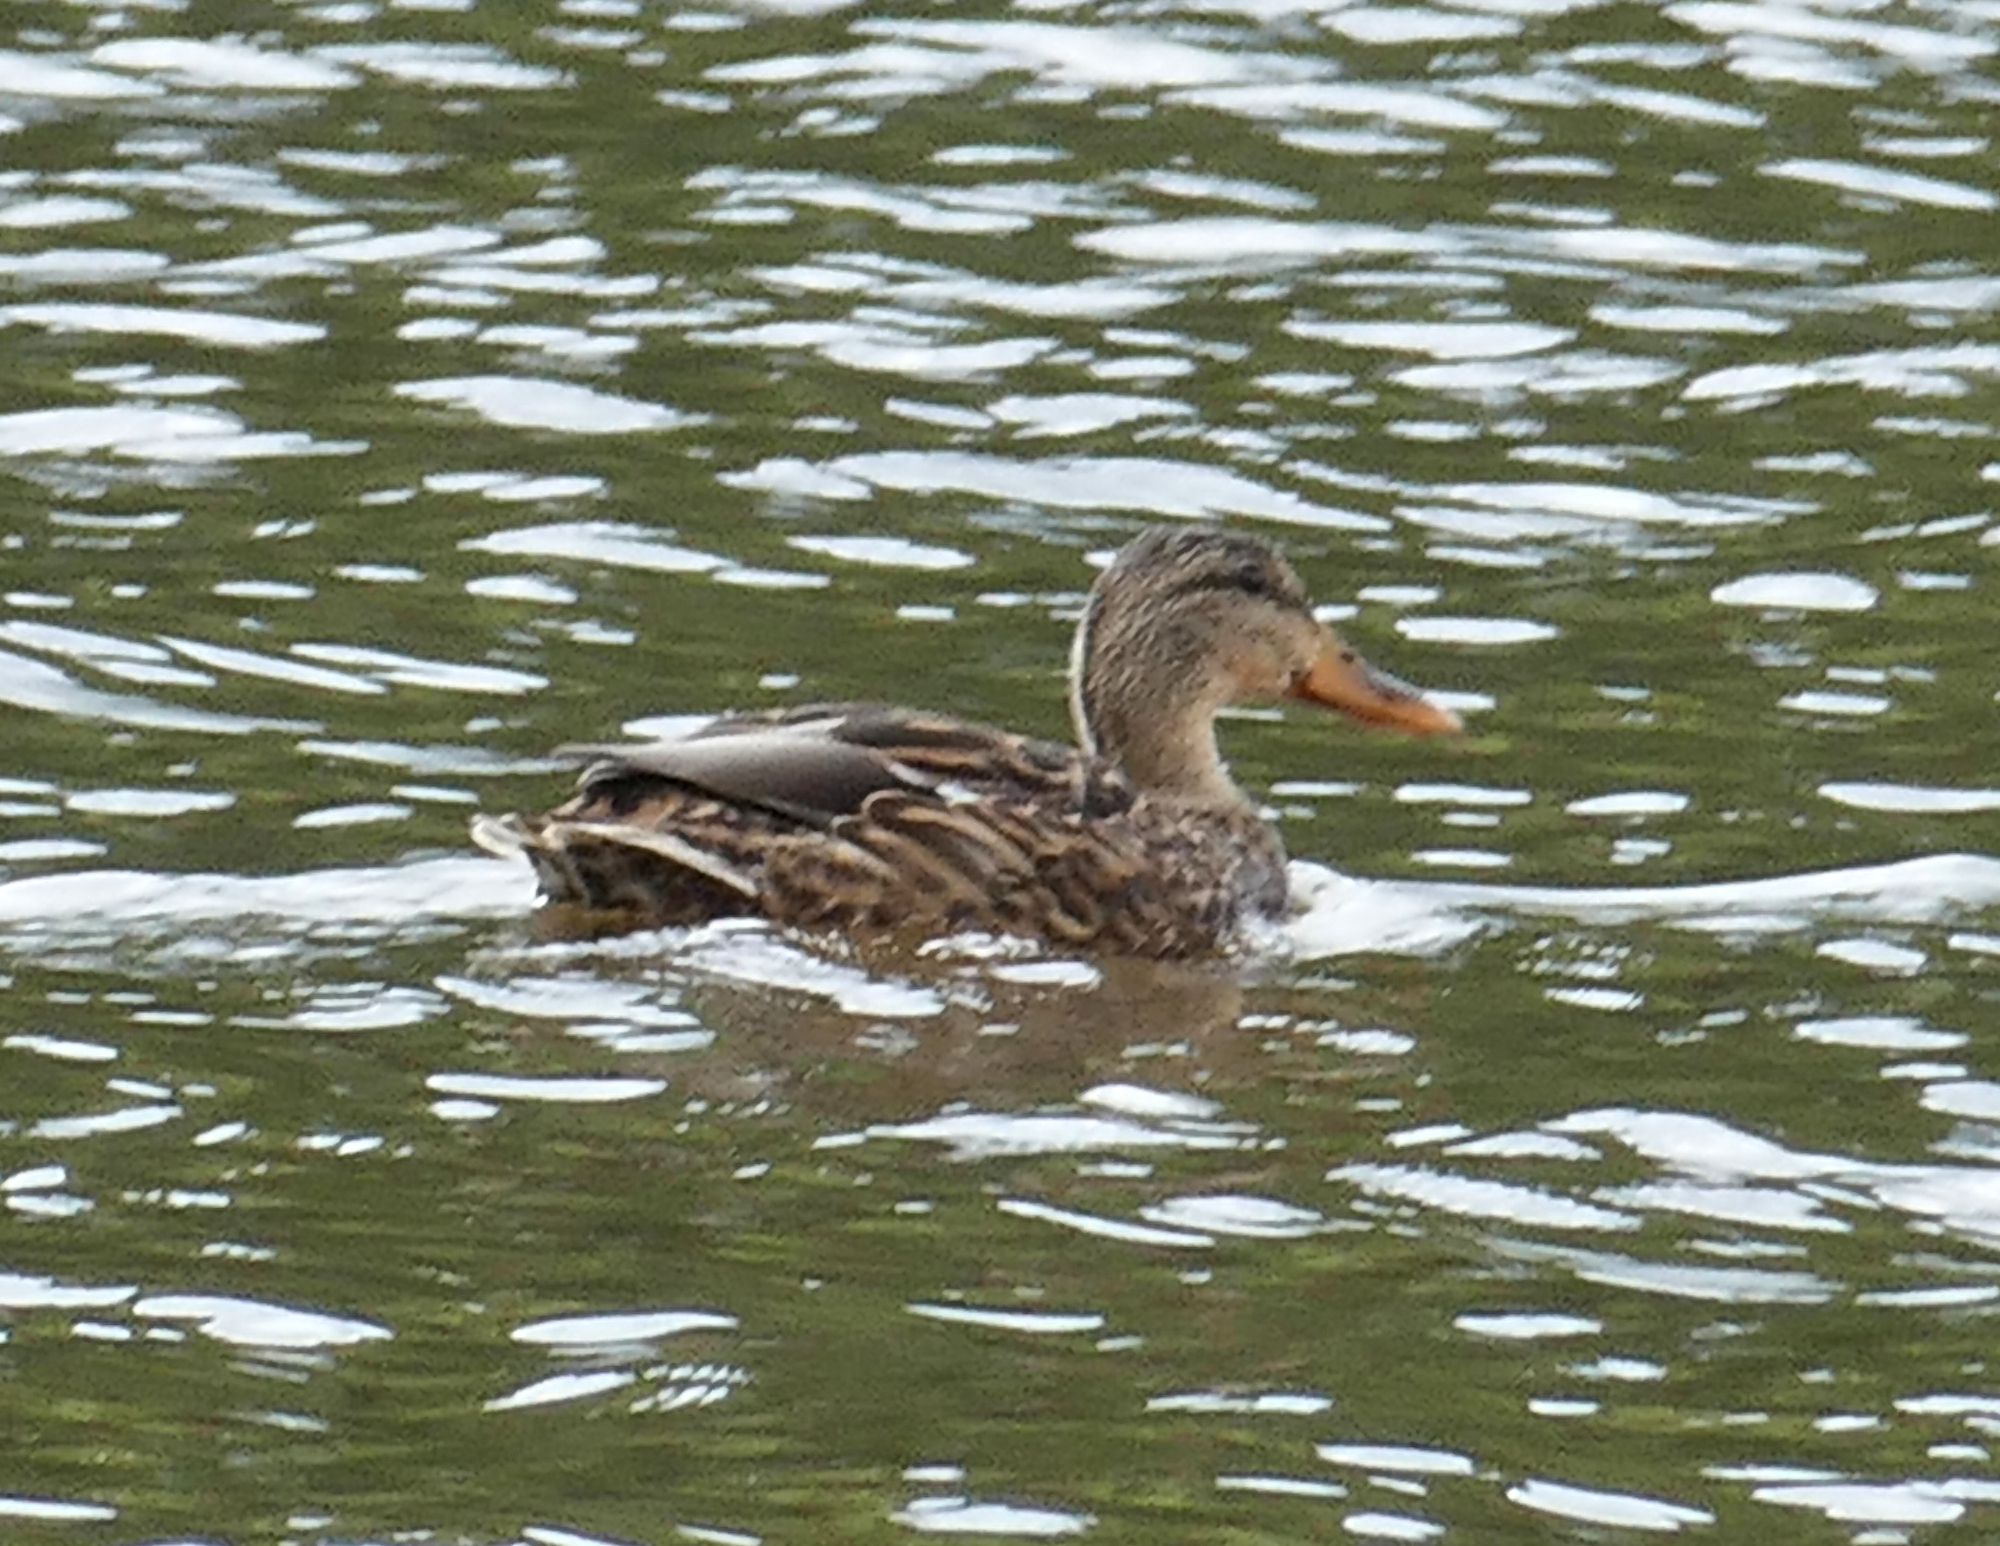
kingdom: Animalia
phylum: Chordata
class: Aves
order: Anseriformes
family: Anatidae
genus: Anas
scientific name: Anas diazi
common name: Mexican duck
